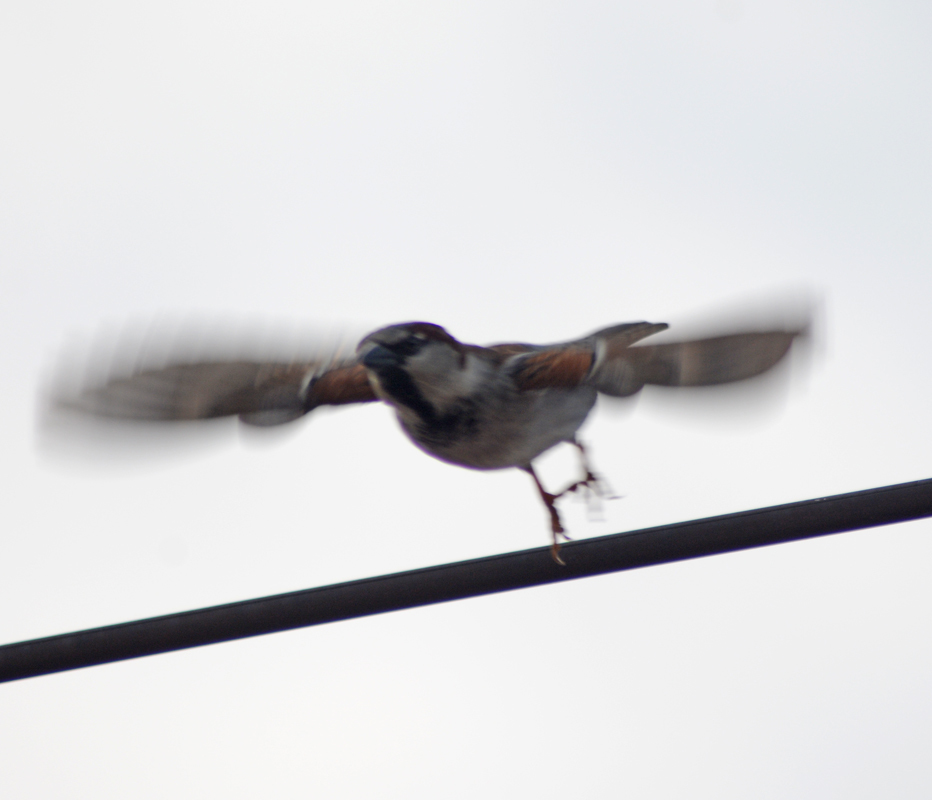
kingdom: Animalia
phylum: Chordata
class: Aves
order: Passeriformes
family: Passeridae
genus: Passer
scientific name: Passer domesticus
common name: House sparrow
